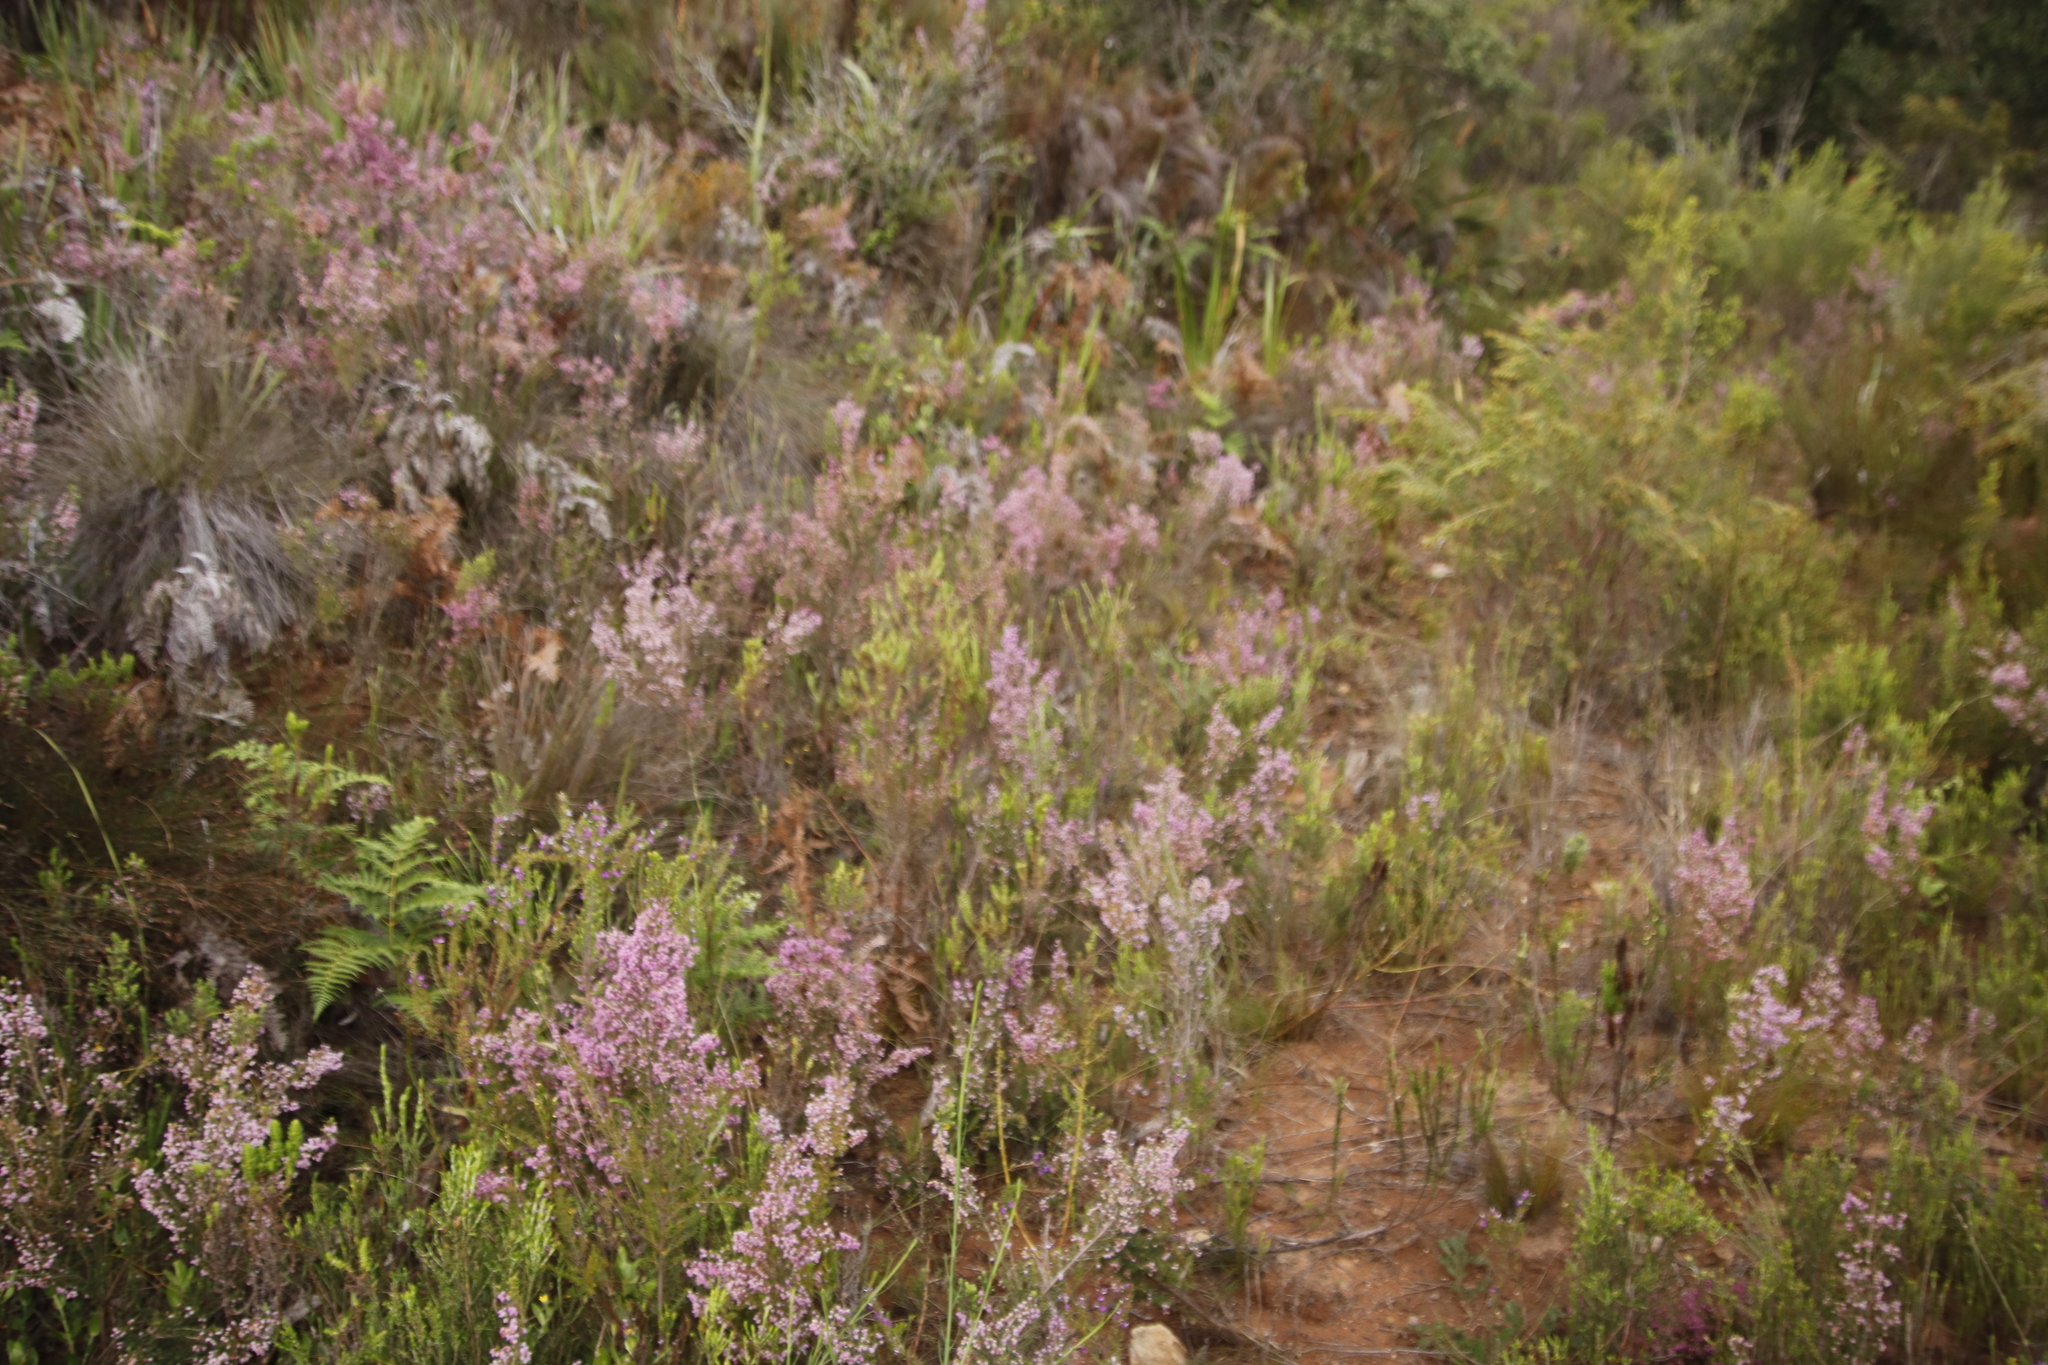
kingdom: Plantae
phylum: Tracheophyta
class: Magnoliopsida
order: Ericales
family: Ericaceae
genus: Erica
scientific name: Erica hirtiflora
